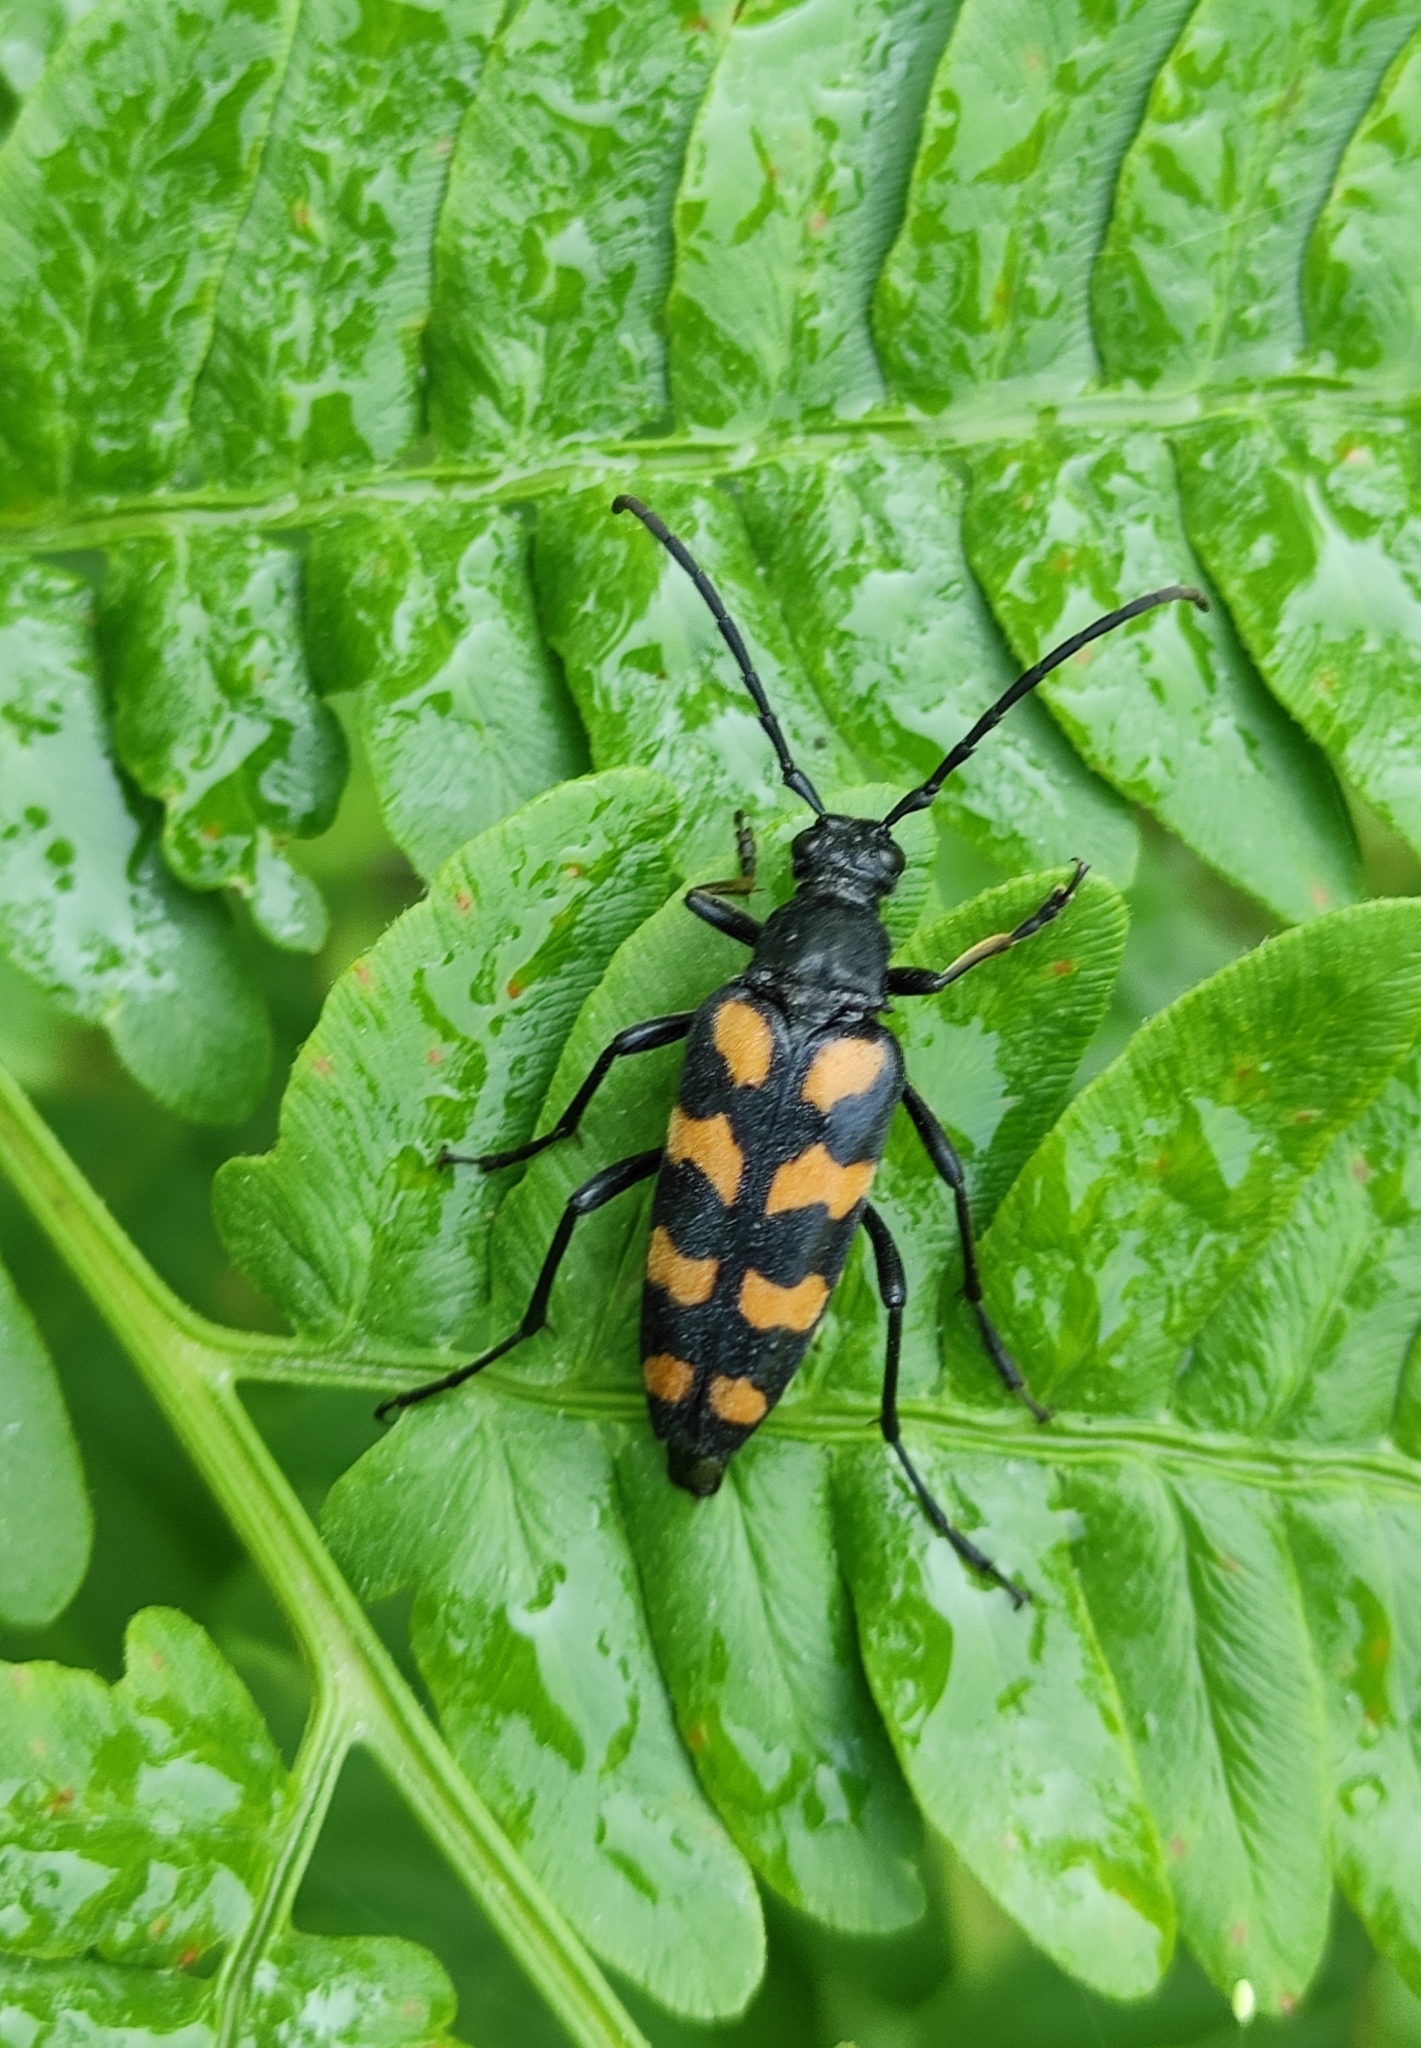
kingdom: Animalia
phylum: Arthropoda
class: Insecta
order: Coleoptera
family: Cerambycidae
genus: Leptura
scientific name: Leptura quadrifasciata
